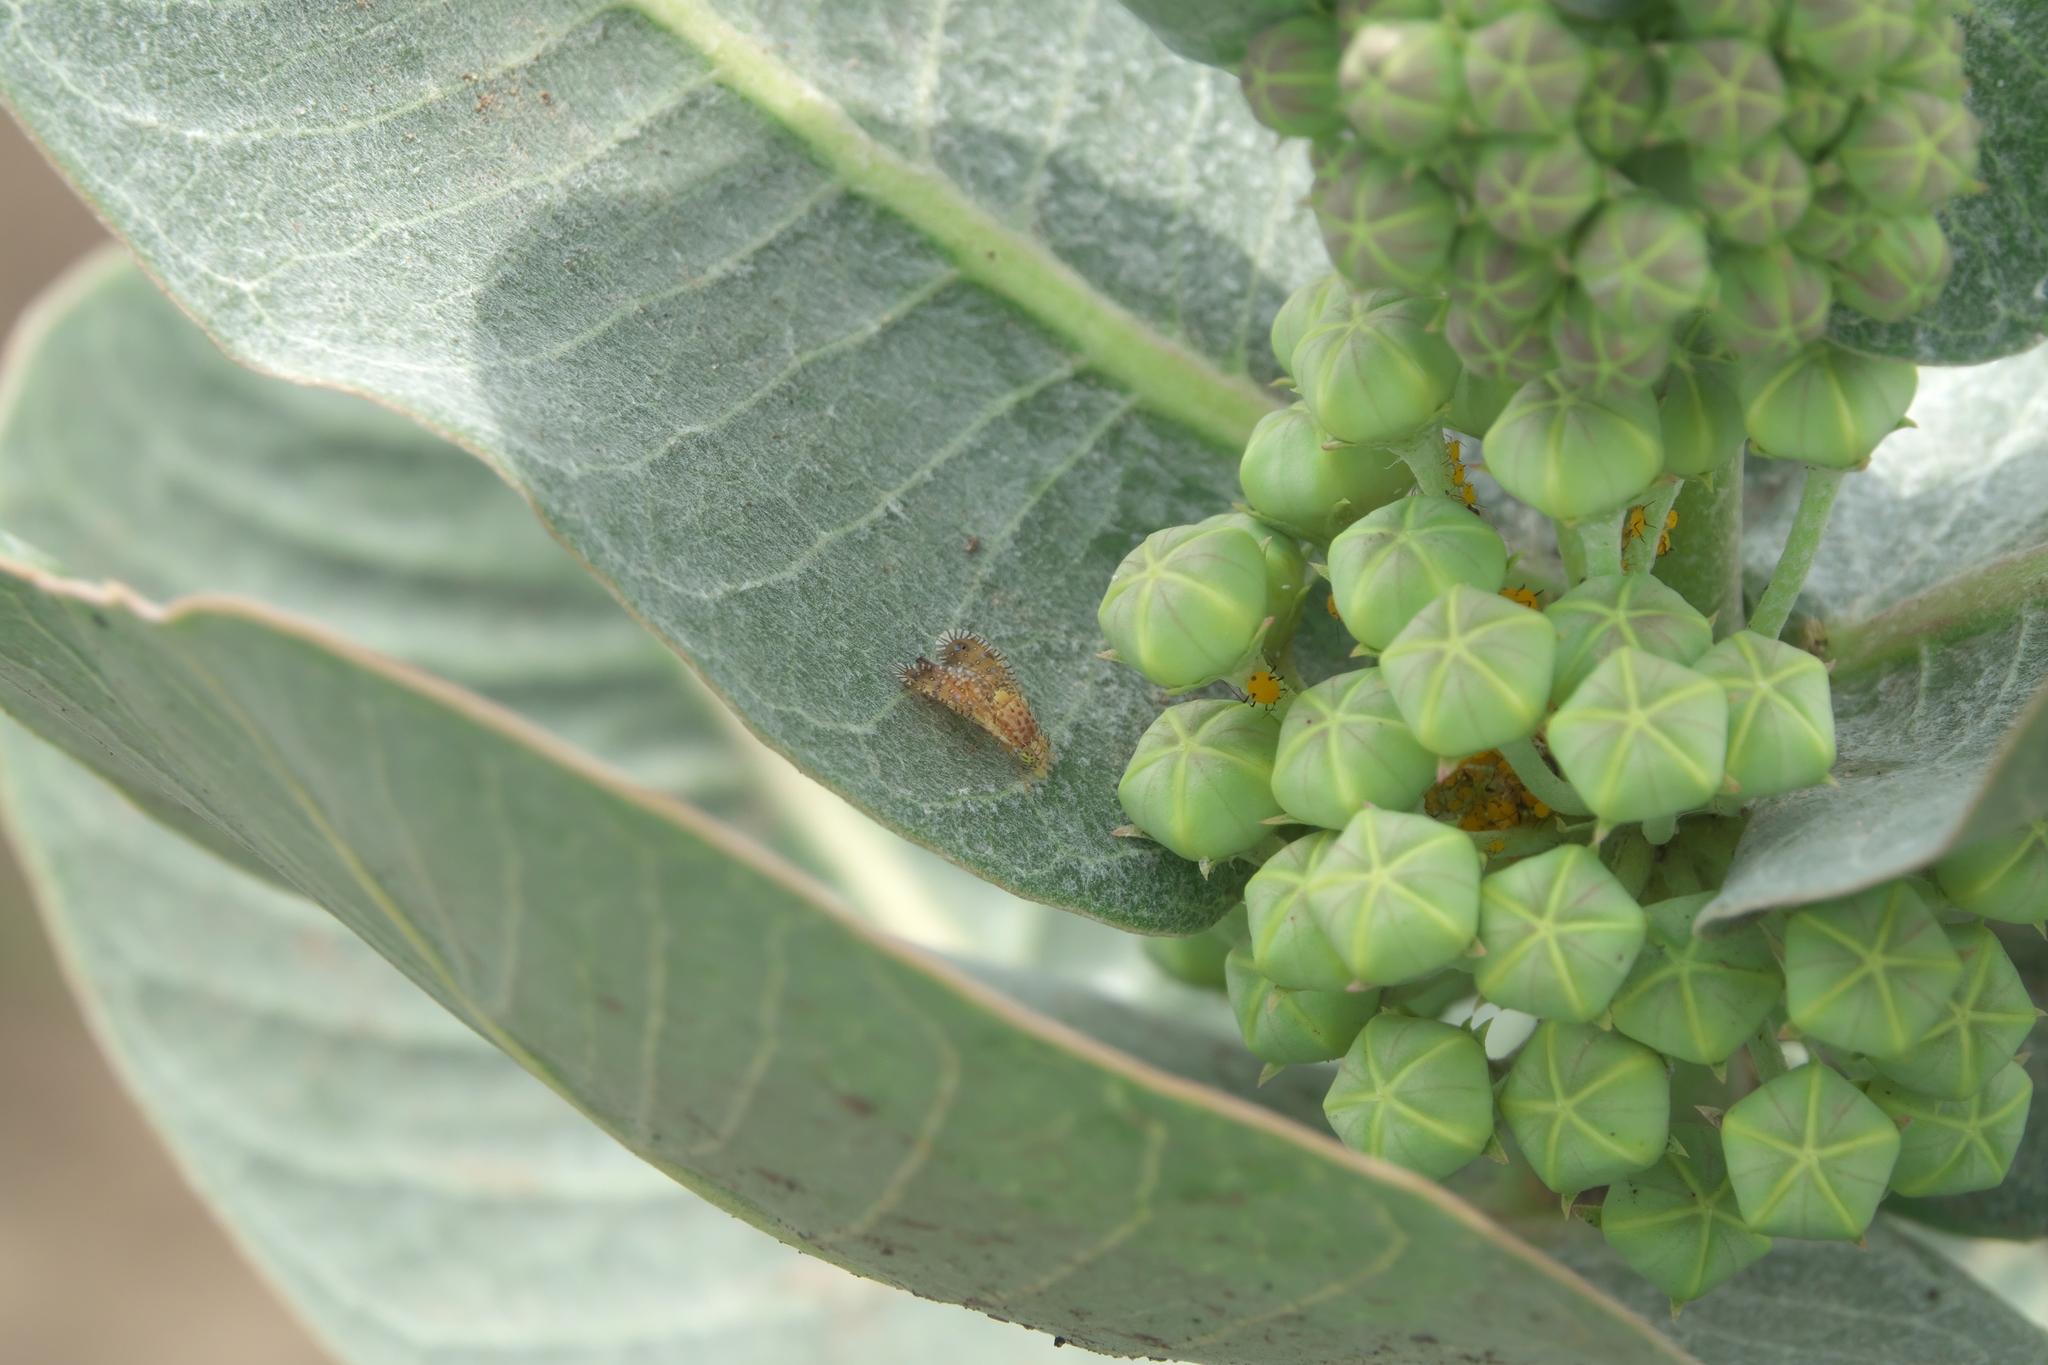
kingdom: Plantae
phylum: Tracheophyta
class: Magnoliopsida
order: Gentianales
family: Apocynaceae
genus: Asclepias
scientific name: Asclepias latifolia
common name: Broadleaf milkweed
